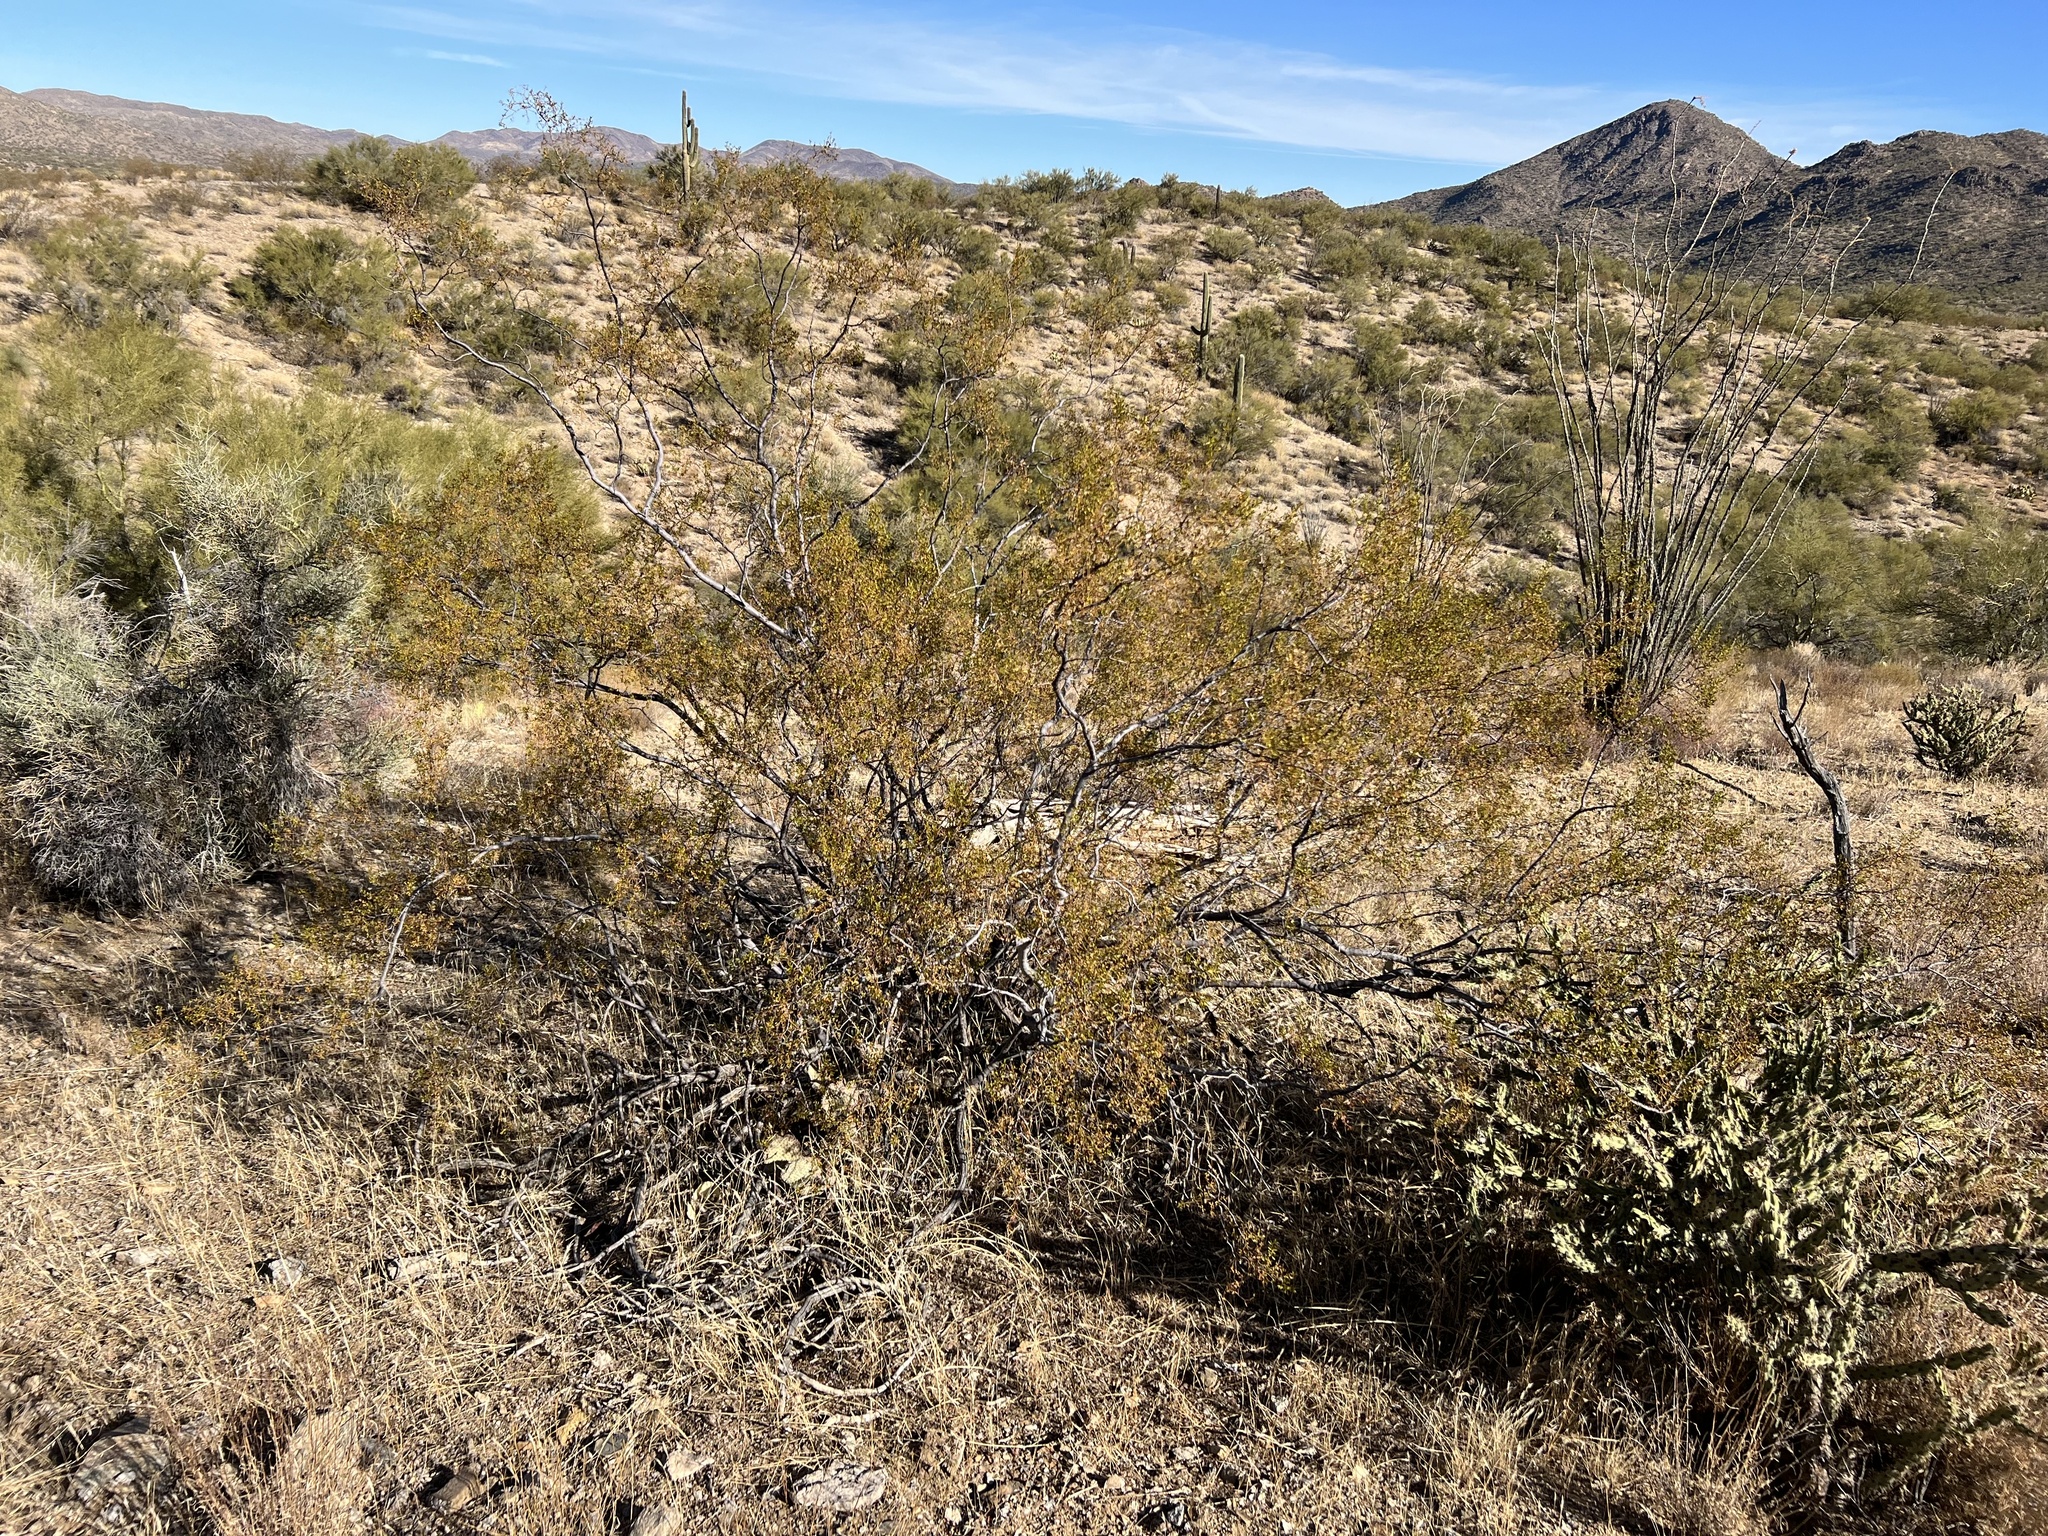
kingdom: Plantae
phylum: Tracheophyta
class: Magnoliopsida
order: Zygophyllales
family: Zygophyllaceae
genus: Larrea
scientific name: Larrea tridentata
